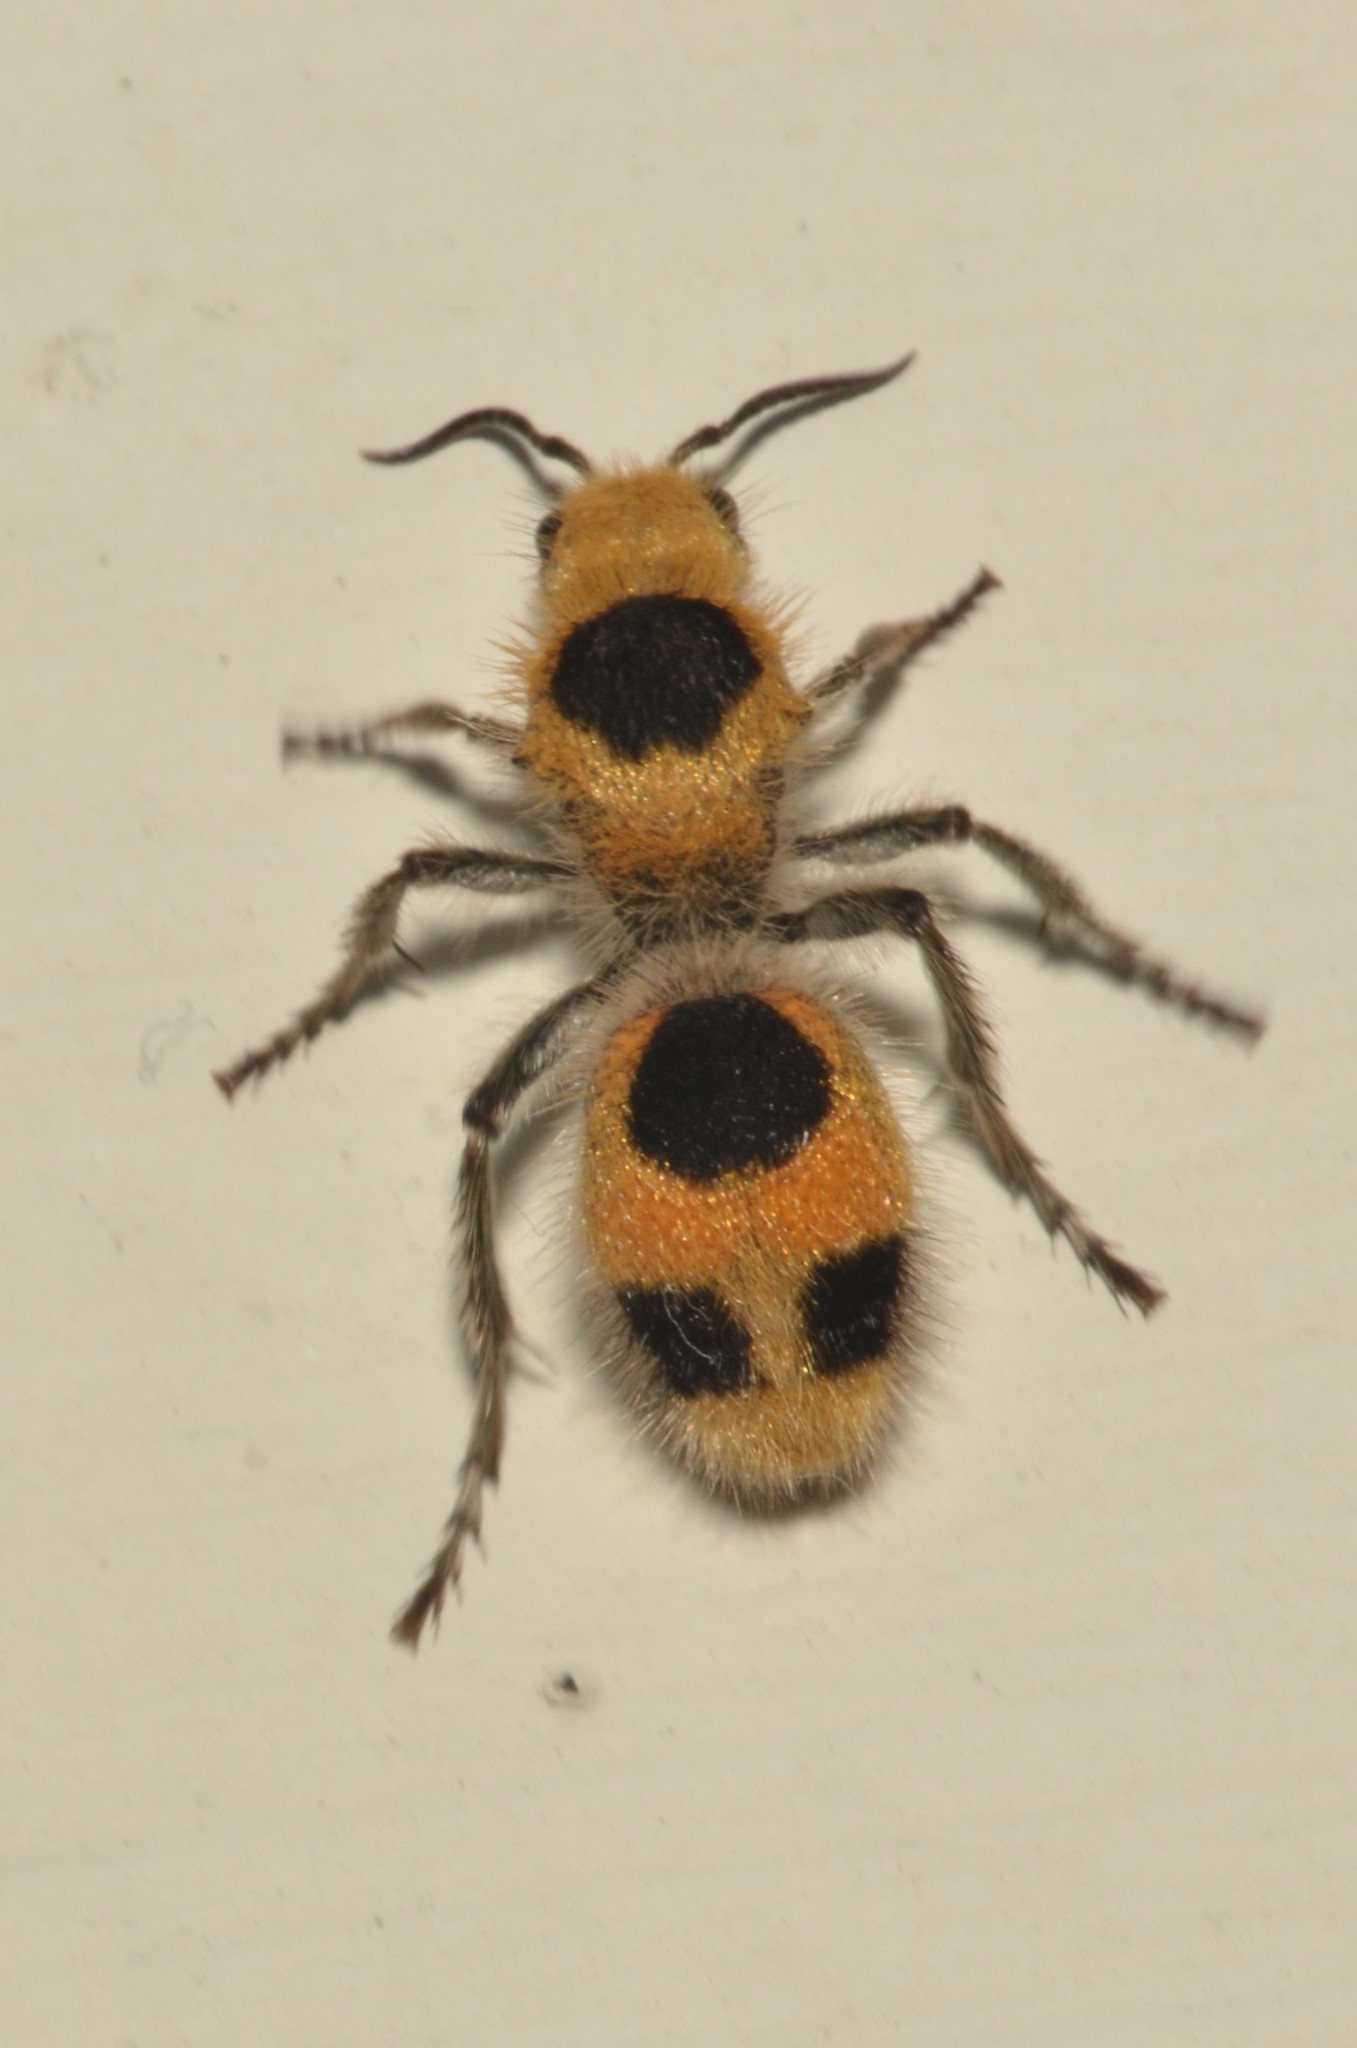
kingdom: Animalia
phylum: Arthropoda
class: Insecta
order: Hymenoptera
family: Mutillidae
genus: Dasymutilla
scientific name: Dasymutilla
